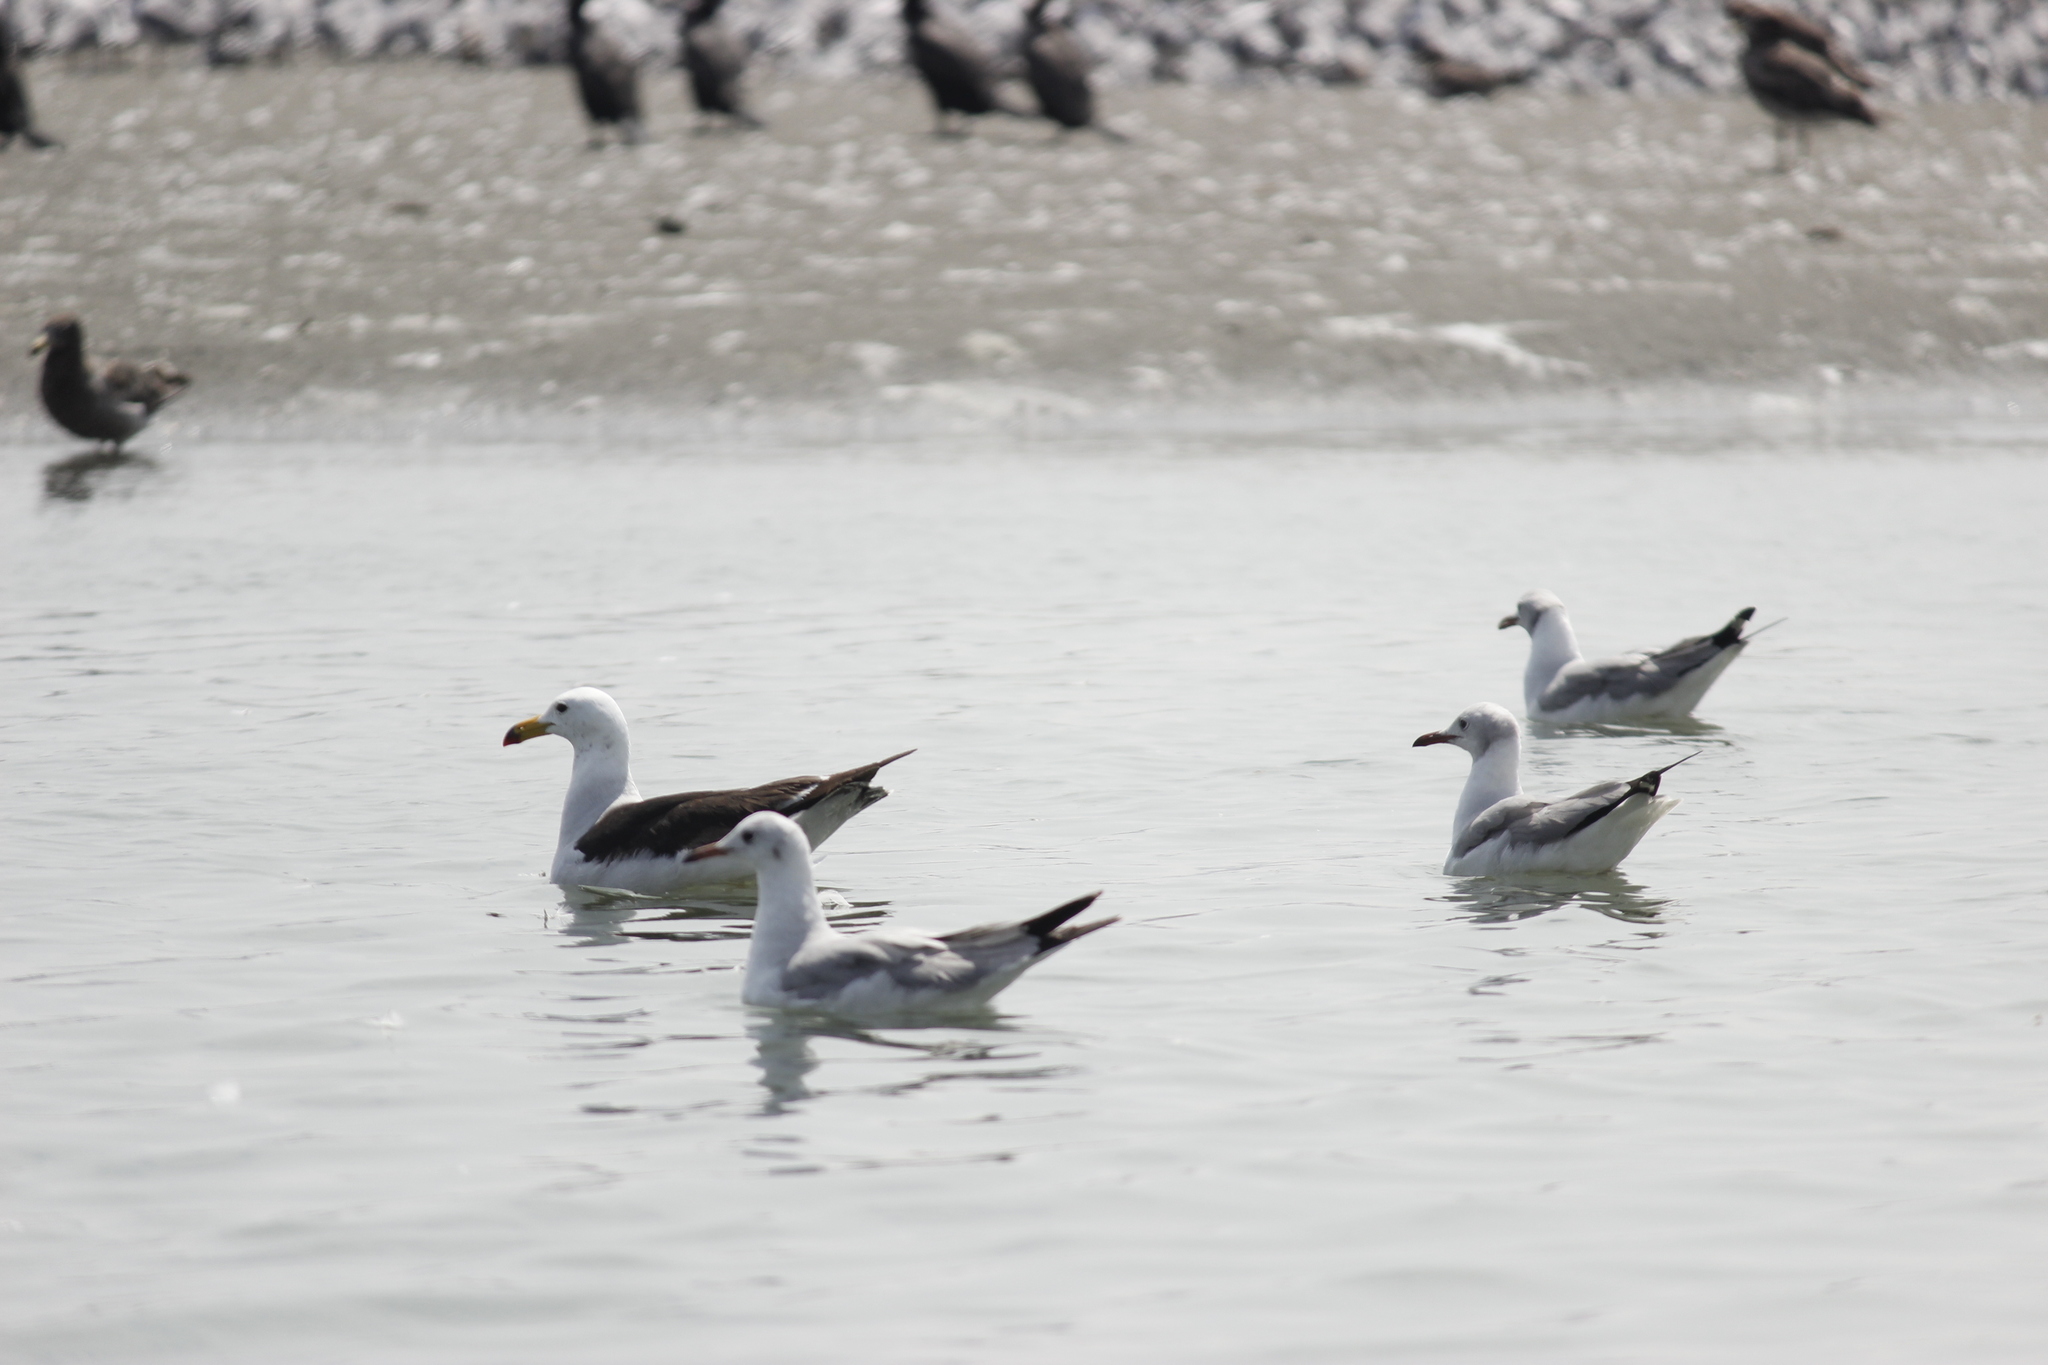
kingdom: Animalia
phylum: Chordata
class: Aves
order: Charadriiformes
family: Laridae
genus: Larus
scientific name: Larus belcheri
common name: Belcher's gull
